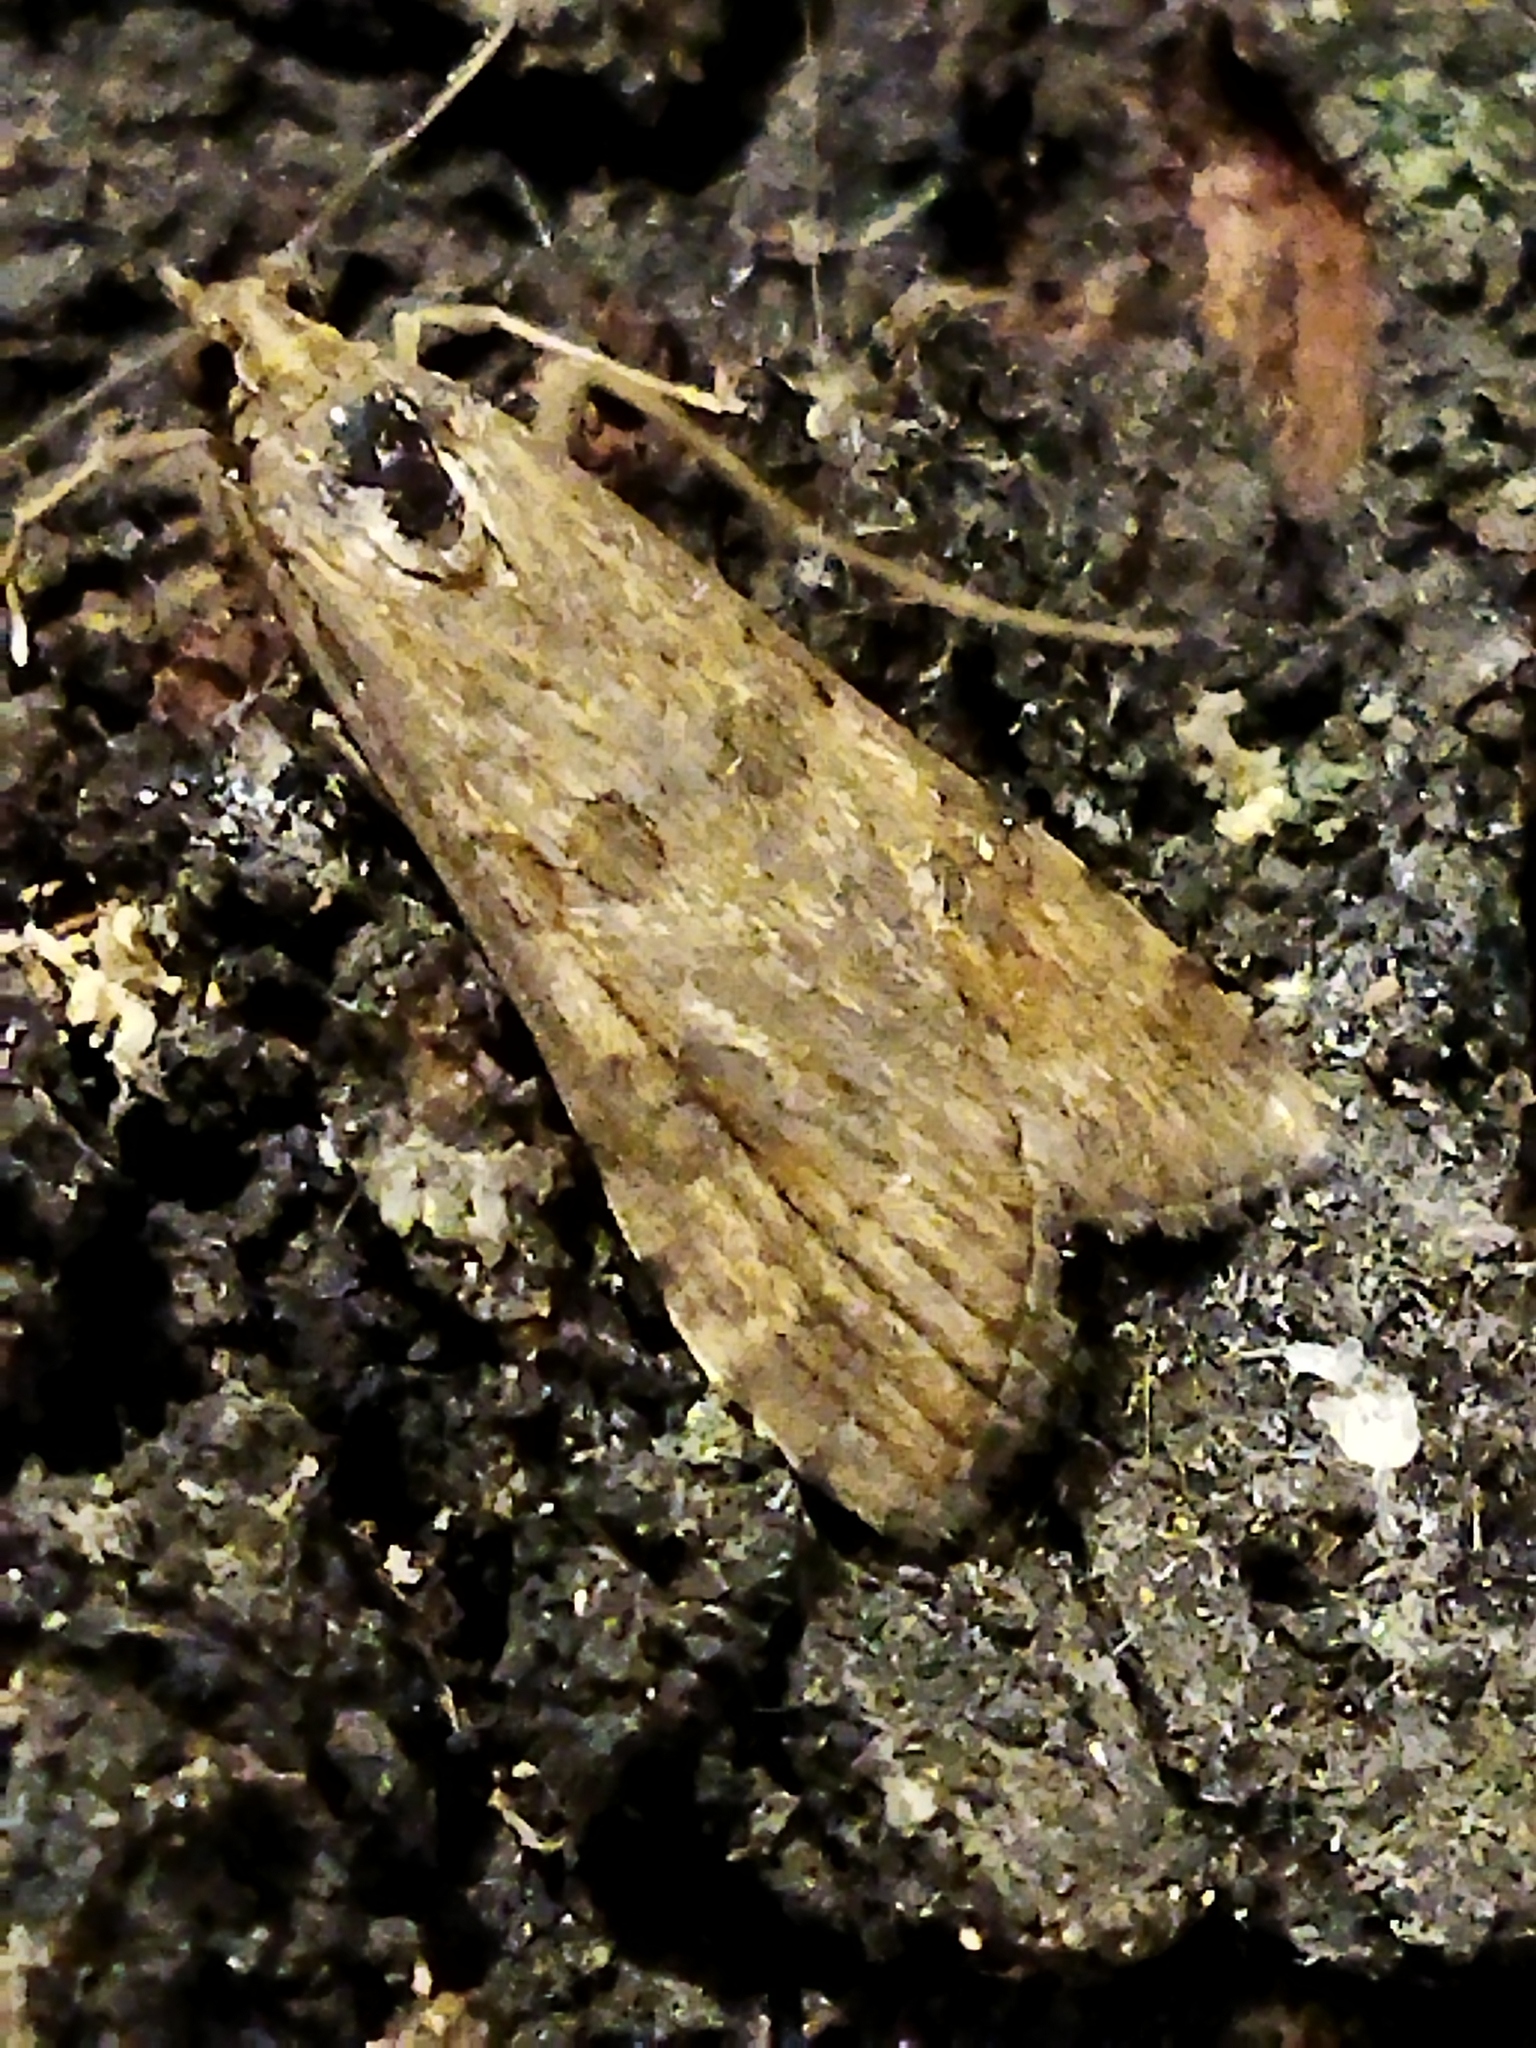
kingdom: Animalia
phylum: Arthropoda
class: Insecta
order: Lepidoptera
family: Crambidae
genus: Nomophila
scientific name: Nomophila noctuella
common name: Rush veneer
